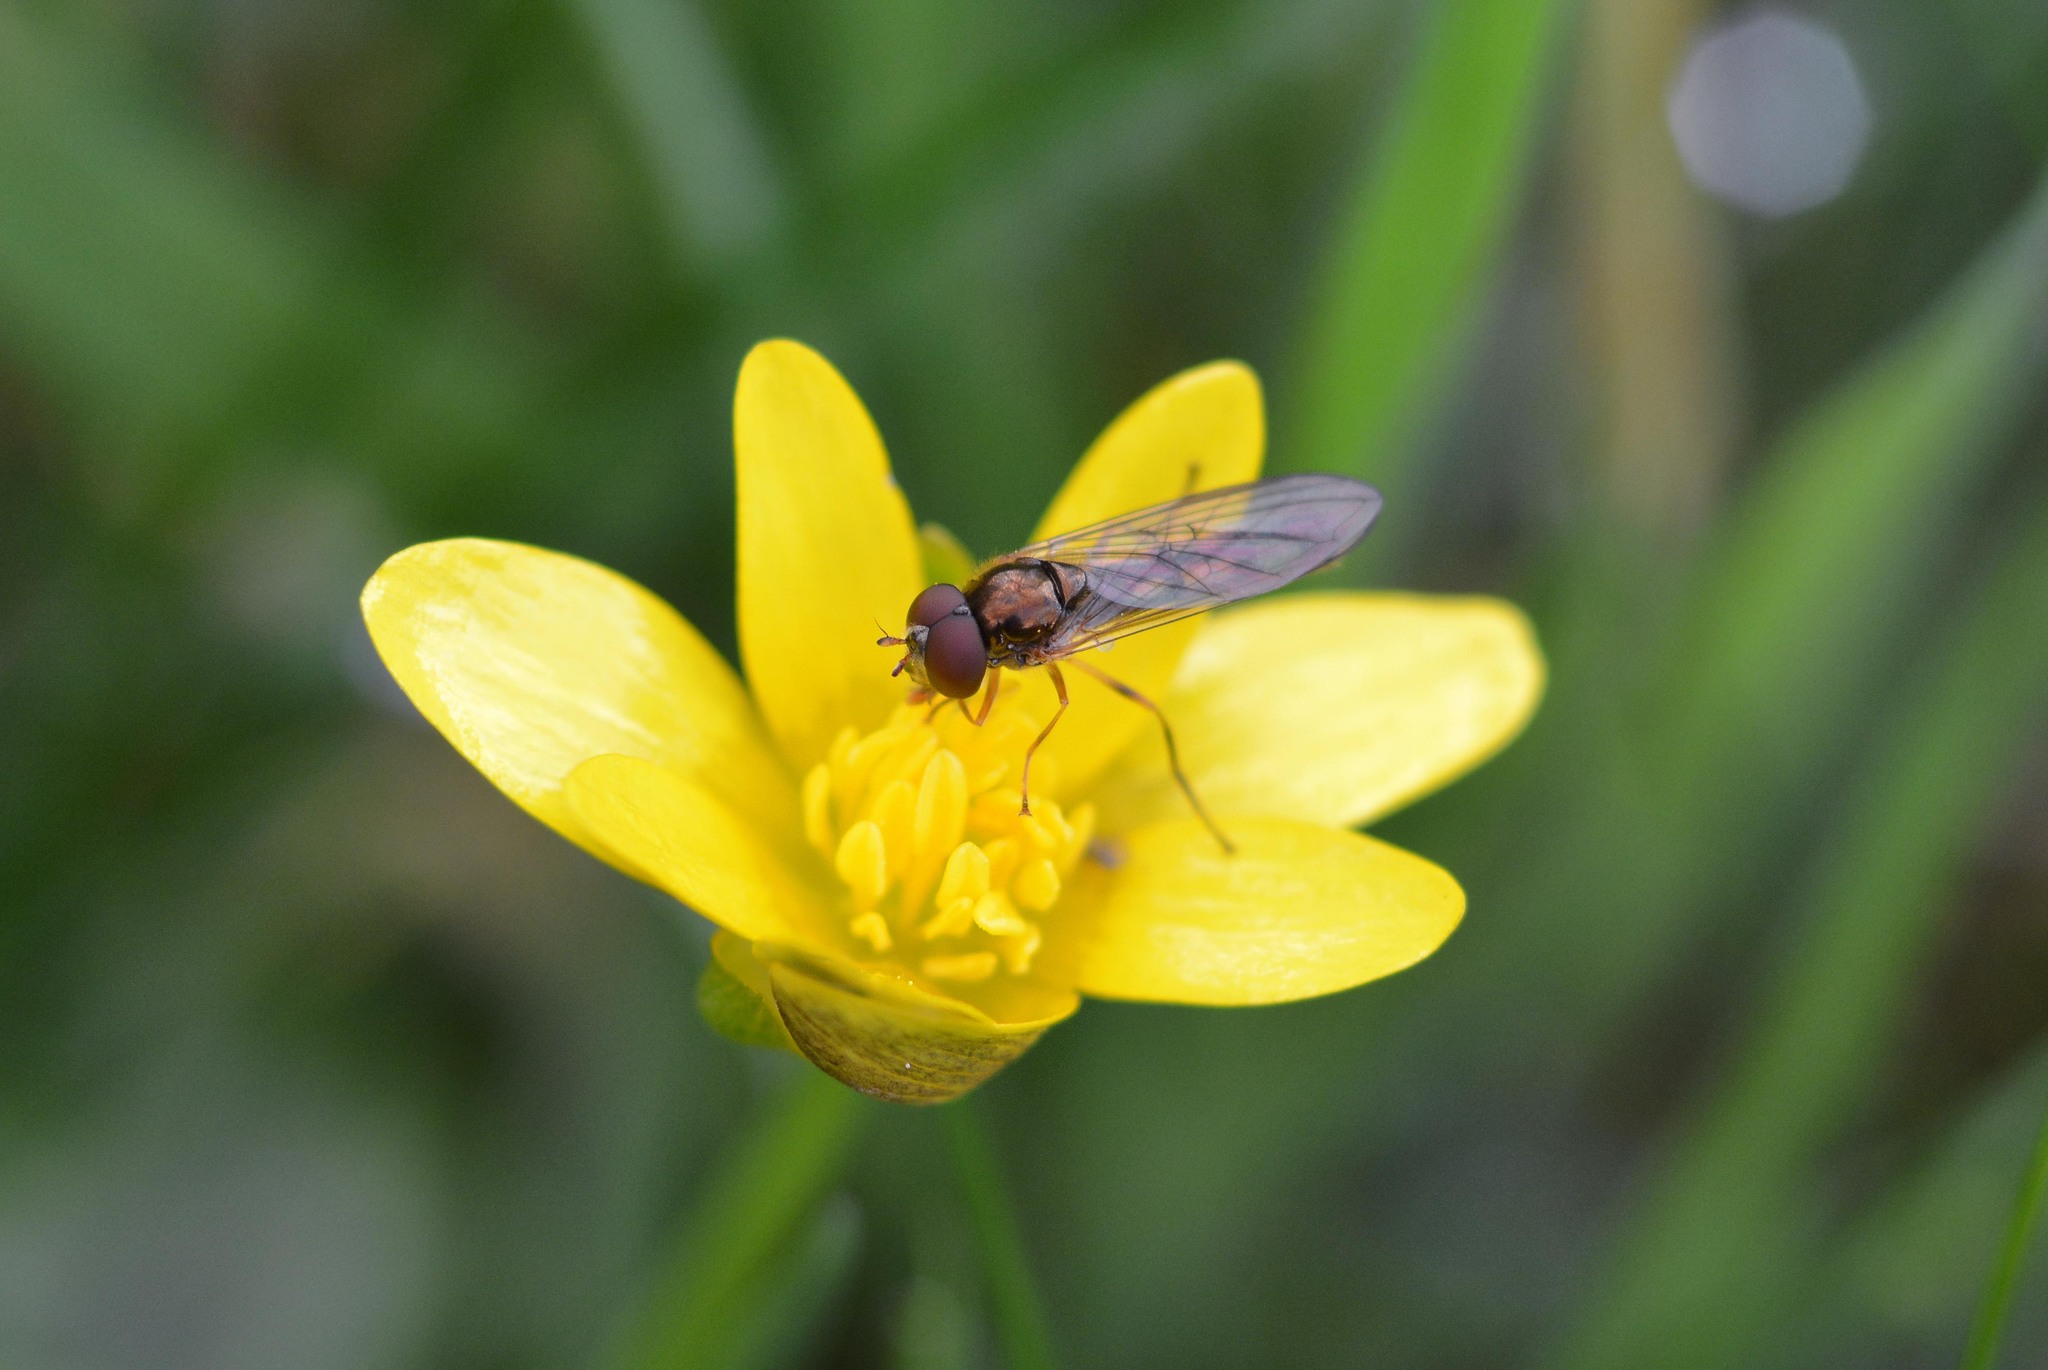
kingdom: Animalia
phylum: Arthropoda
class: Insecta
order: Diptera
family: Syrphidae
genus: Melanostoma
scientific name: Melanostoma scalare
